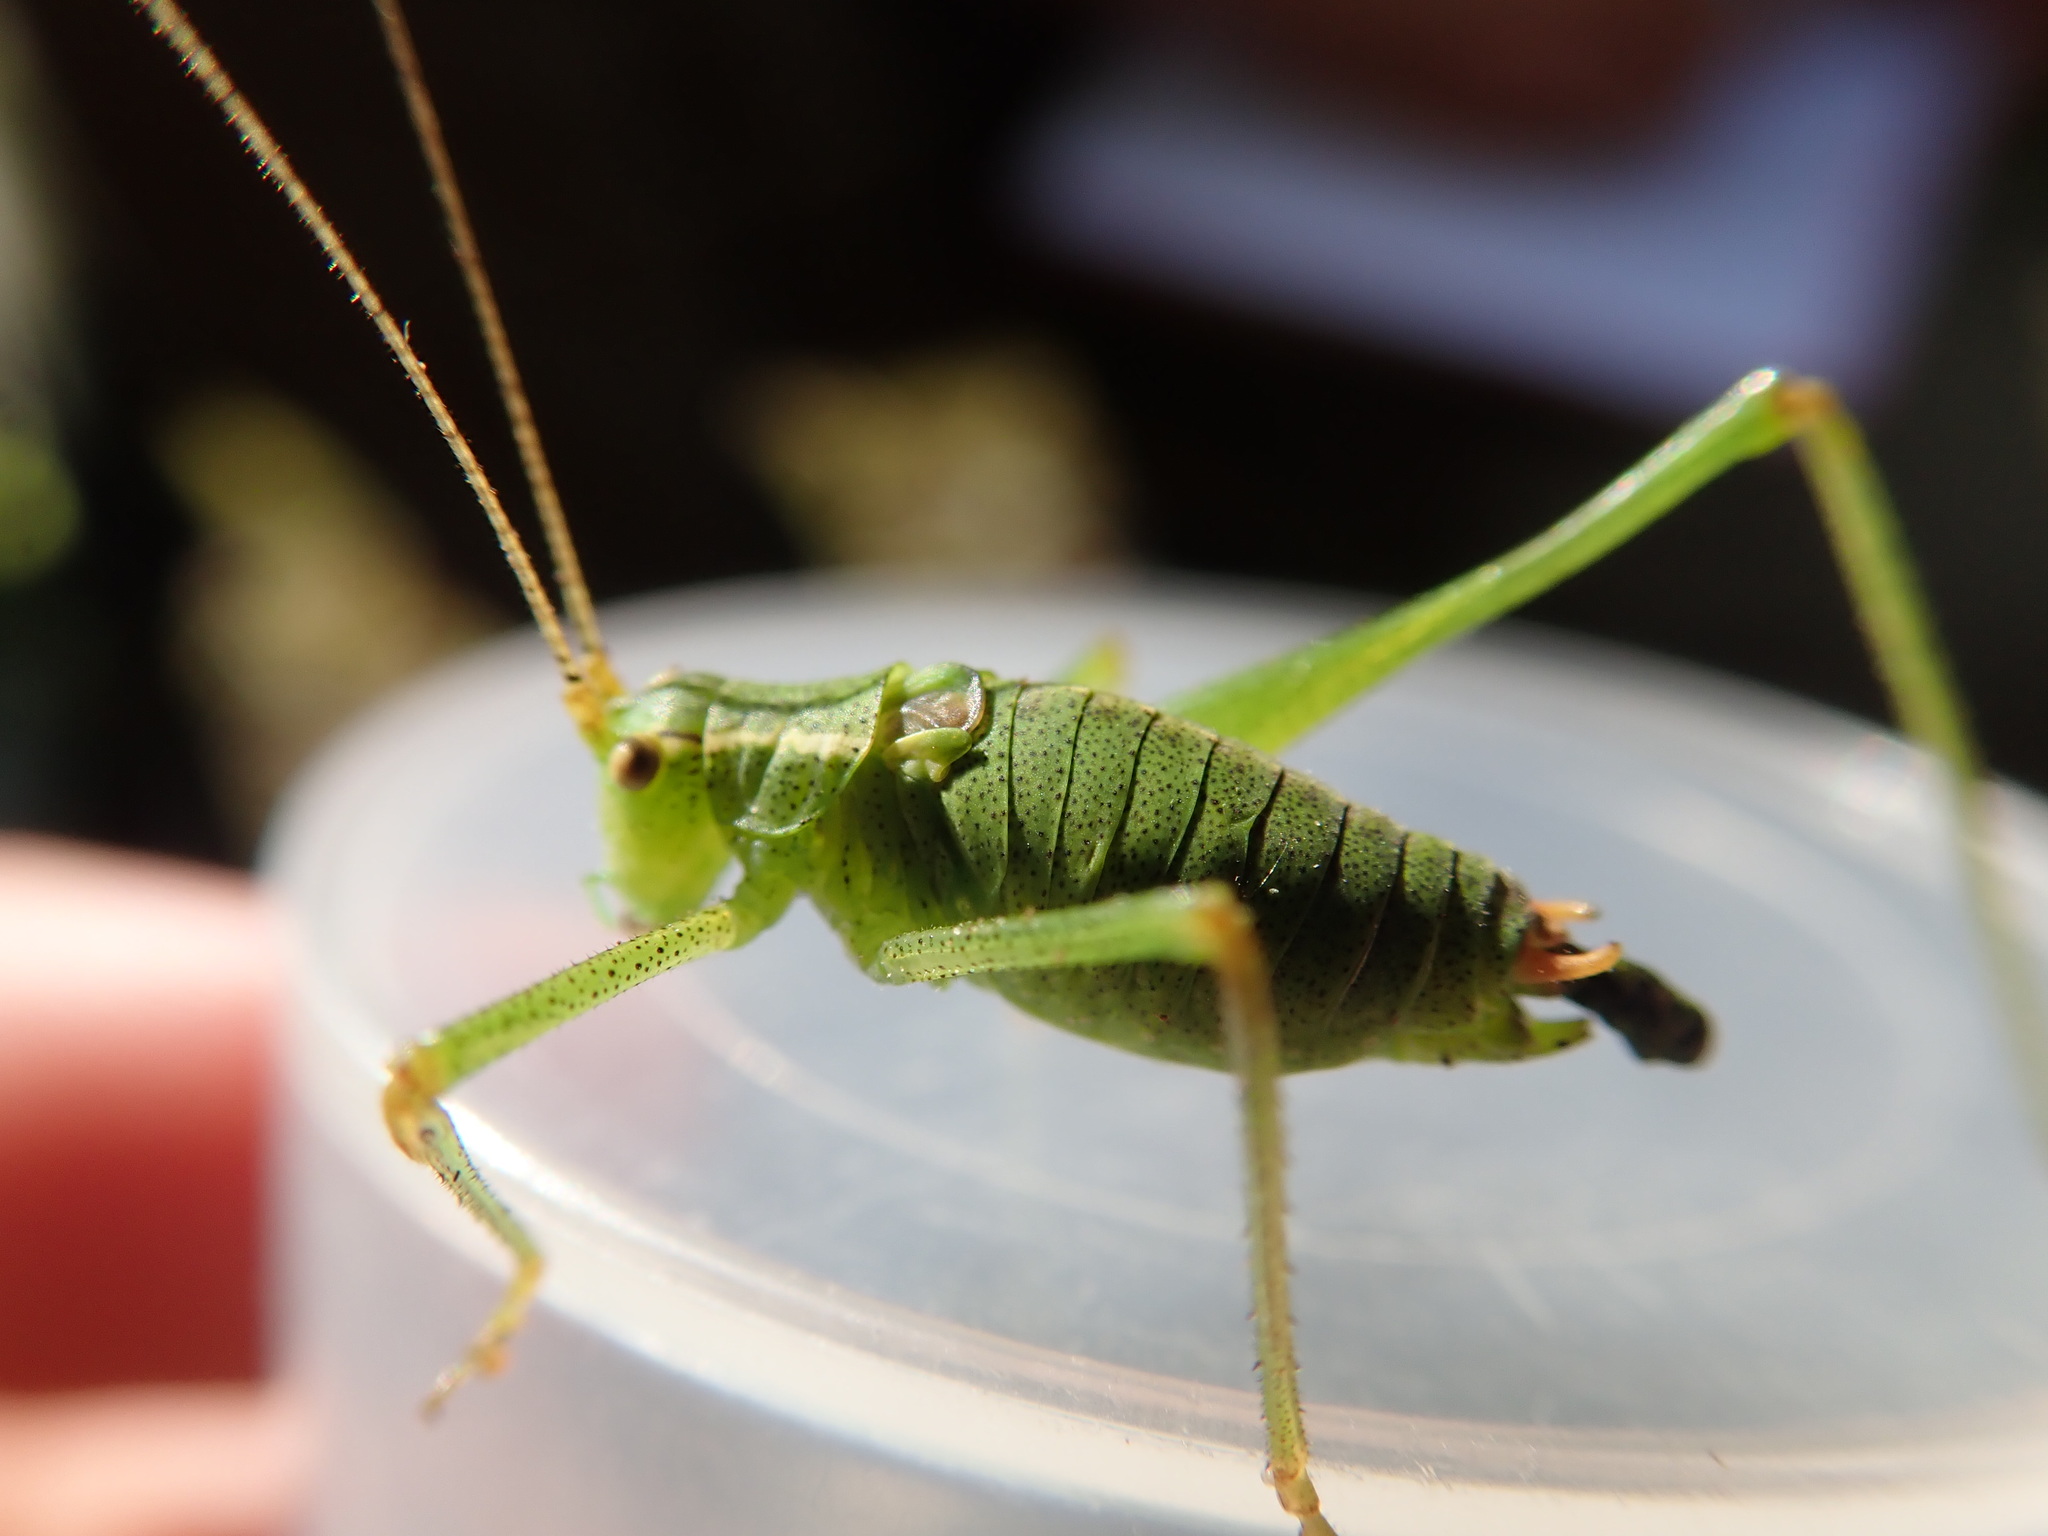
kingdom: Animalia
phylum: Arthropoda
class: Insecta
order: Orthoptera
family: Tettigoniidae
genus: Leptophyes
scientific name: Leptophyes punctatissima
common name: Speckled bush-cricket
